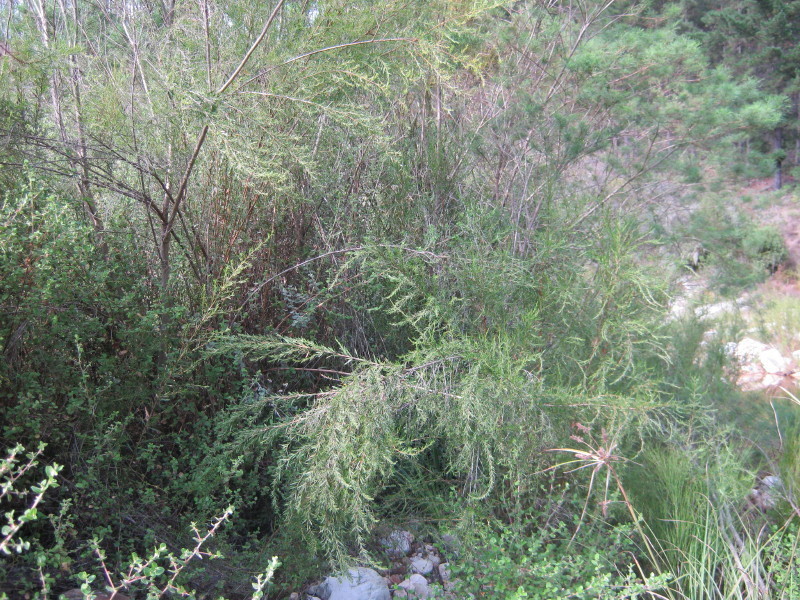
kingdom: Plantae
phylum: Tracheophyta
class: Magnoliopsida
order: Rosales
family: Rosaceae
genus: Cliffortia
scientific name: Cliffortia strobilifera
